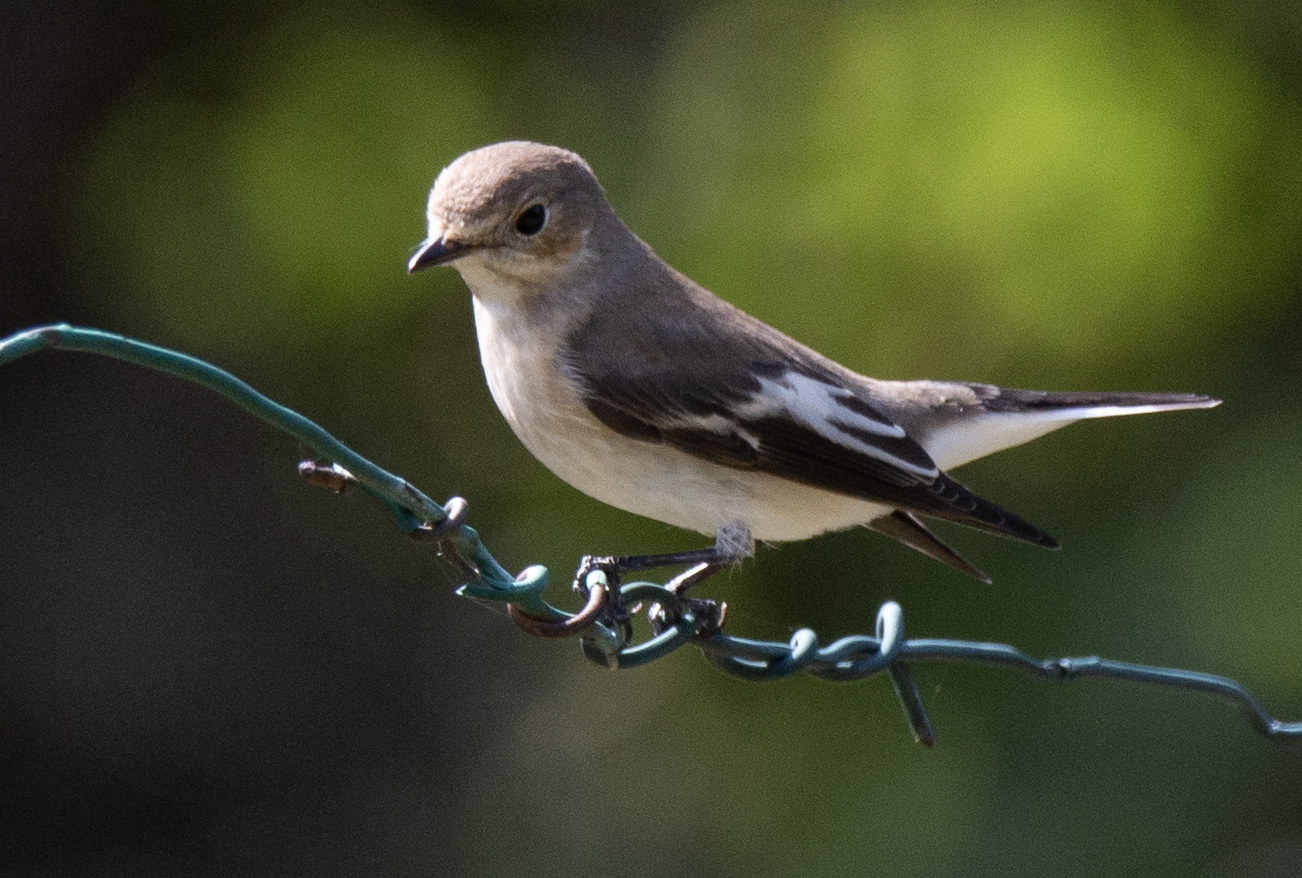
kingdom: Animalia
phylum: Chordata
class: Aves
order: Passeriformes
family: Muscicapidae
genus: Ficedula
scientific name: Ficedula hypoleuca
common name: European pied flycatcher
